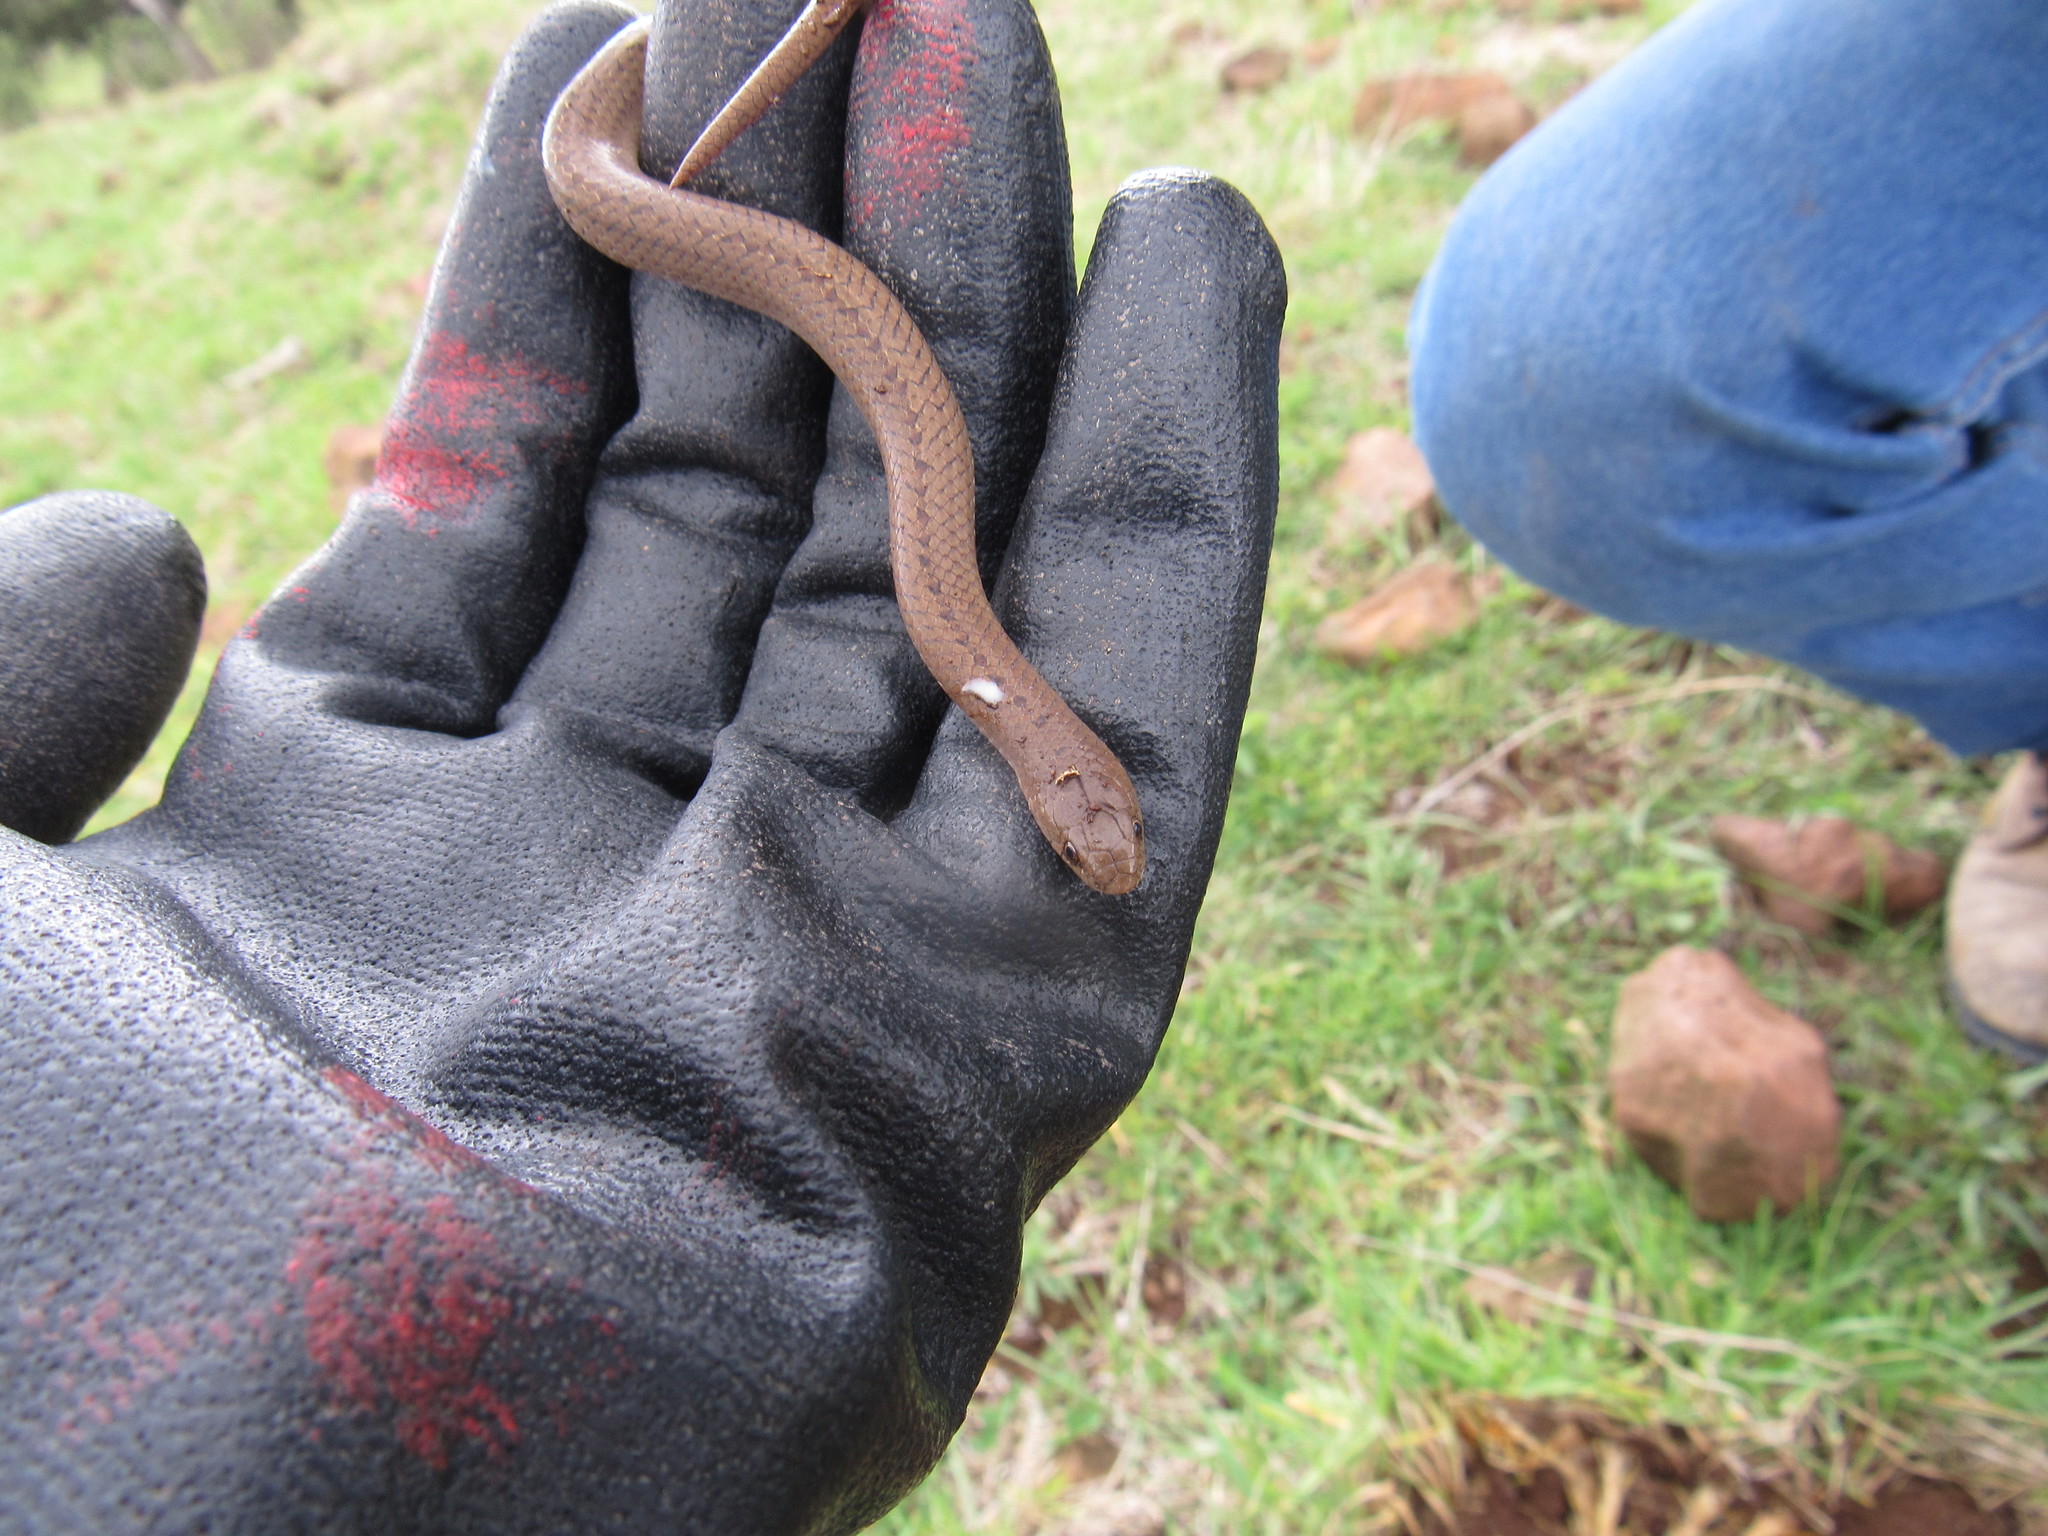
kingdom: Animalia
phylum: Chordata
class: Squamata
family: Colubridae
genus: Conopsis
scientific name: Conopsis biserialis
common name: Two-lined mexican earth snake
